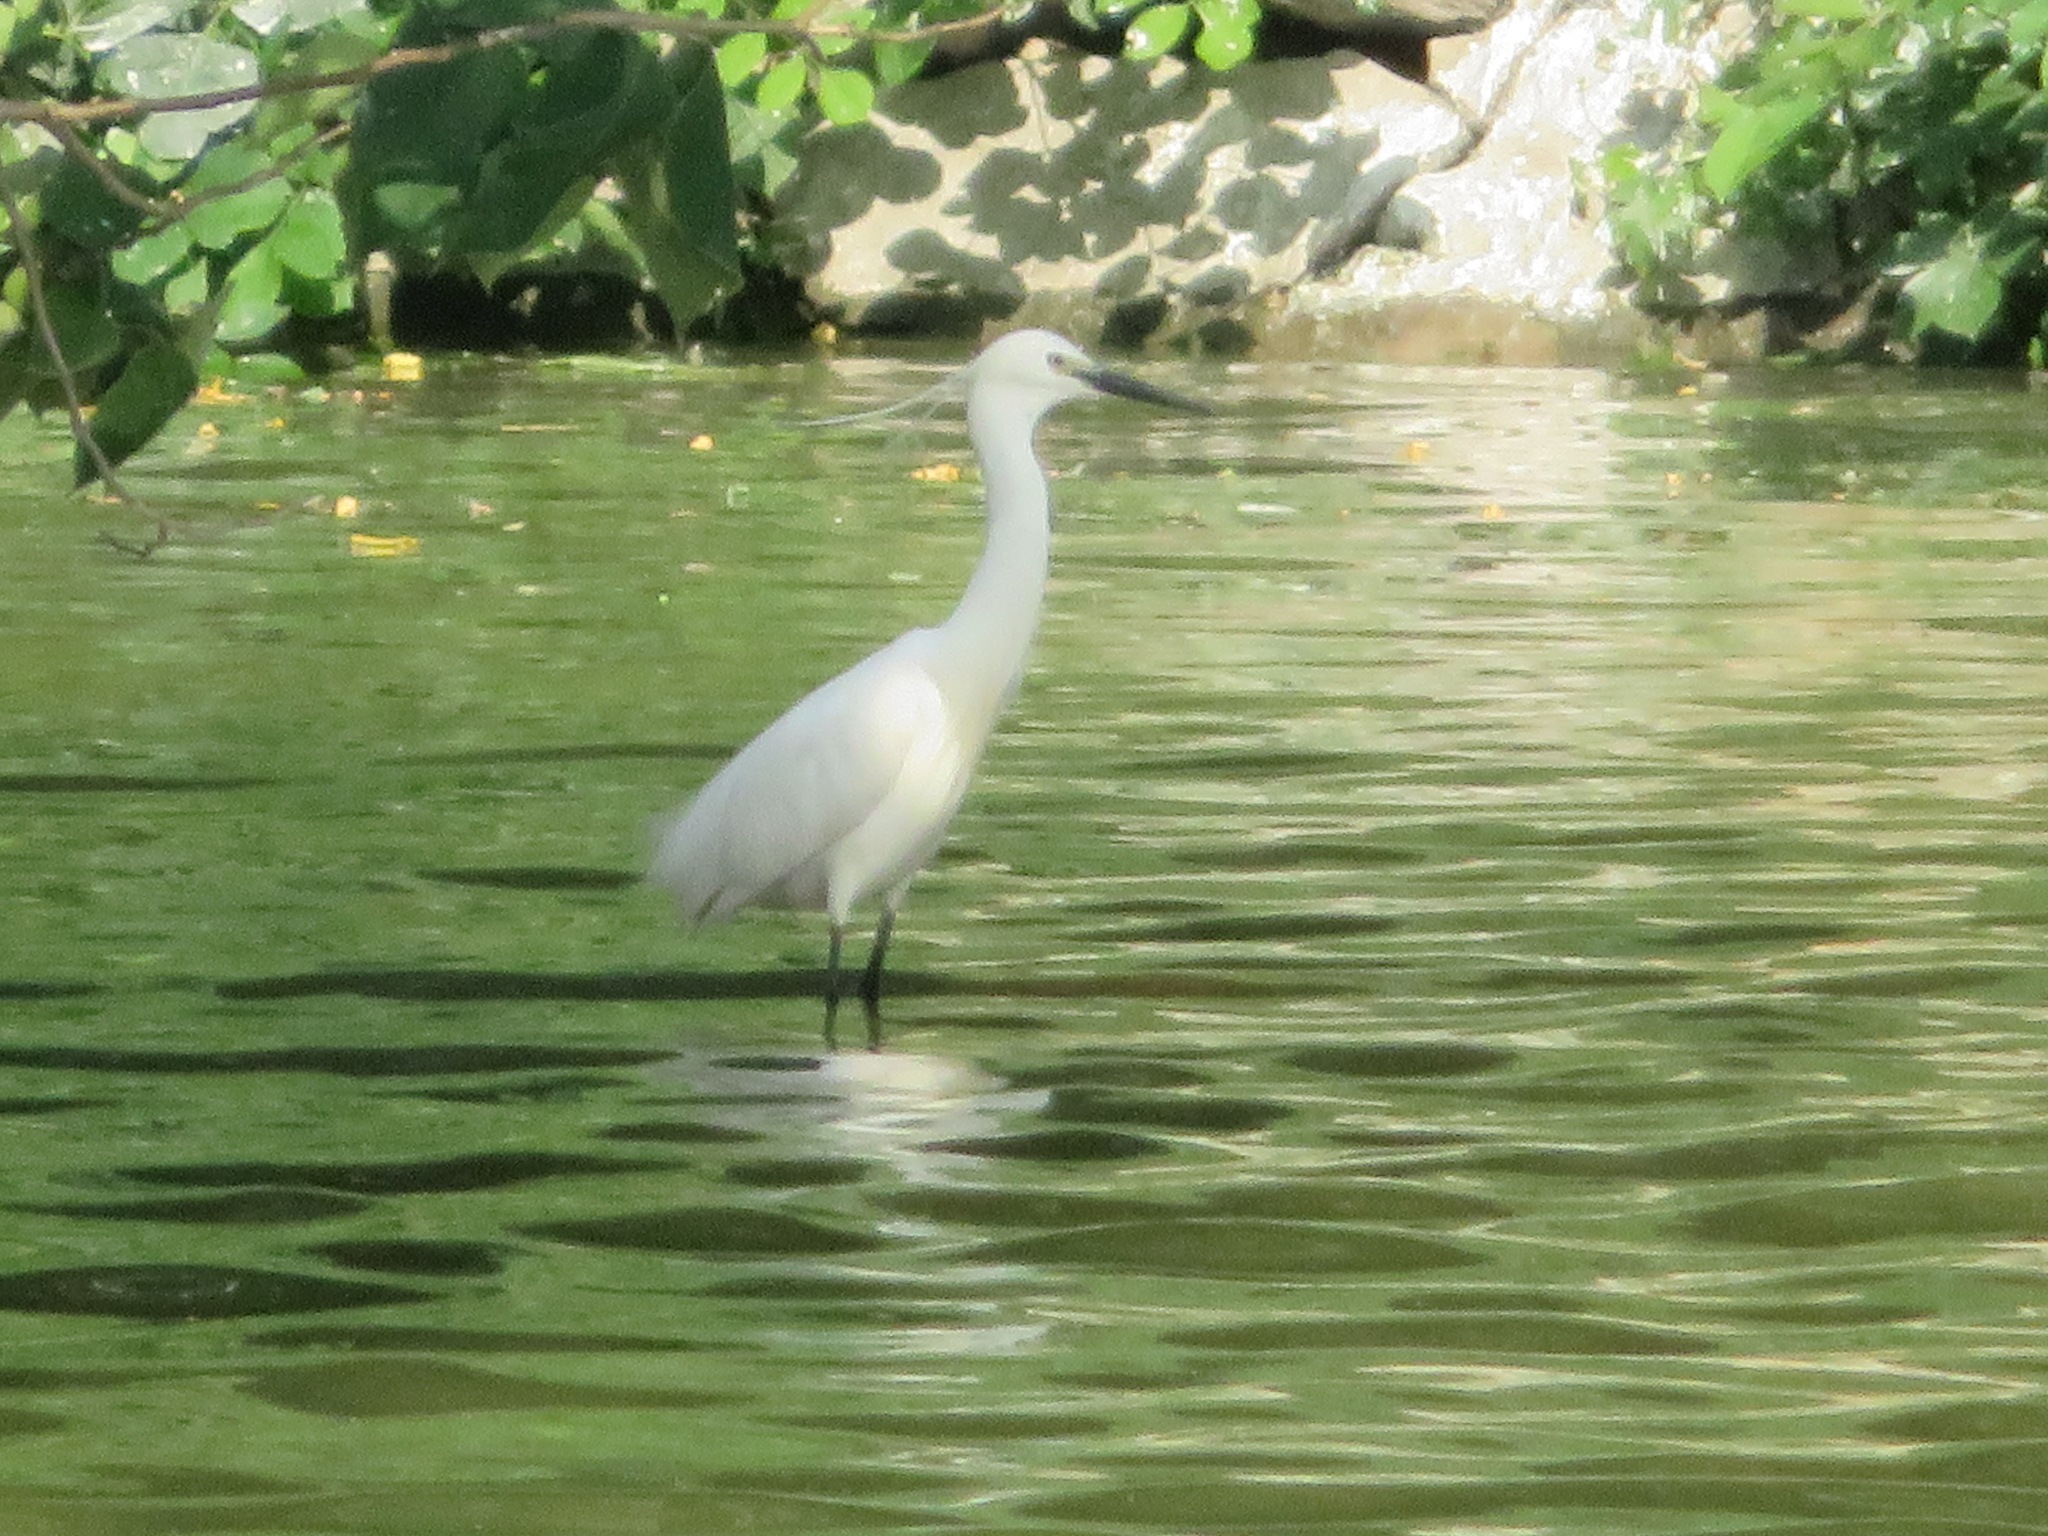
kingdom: Animalia
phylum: Chordata
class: Aves
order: Pelecaniformes
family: Ardeidae
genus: Egretta
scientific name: Egretta garzetta
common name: Little egret
